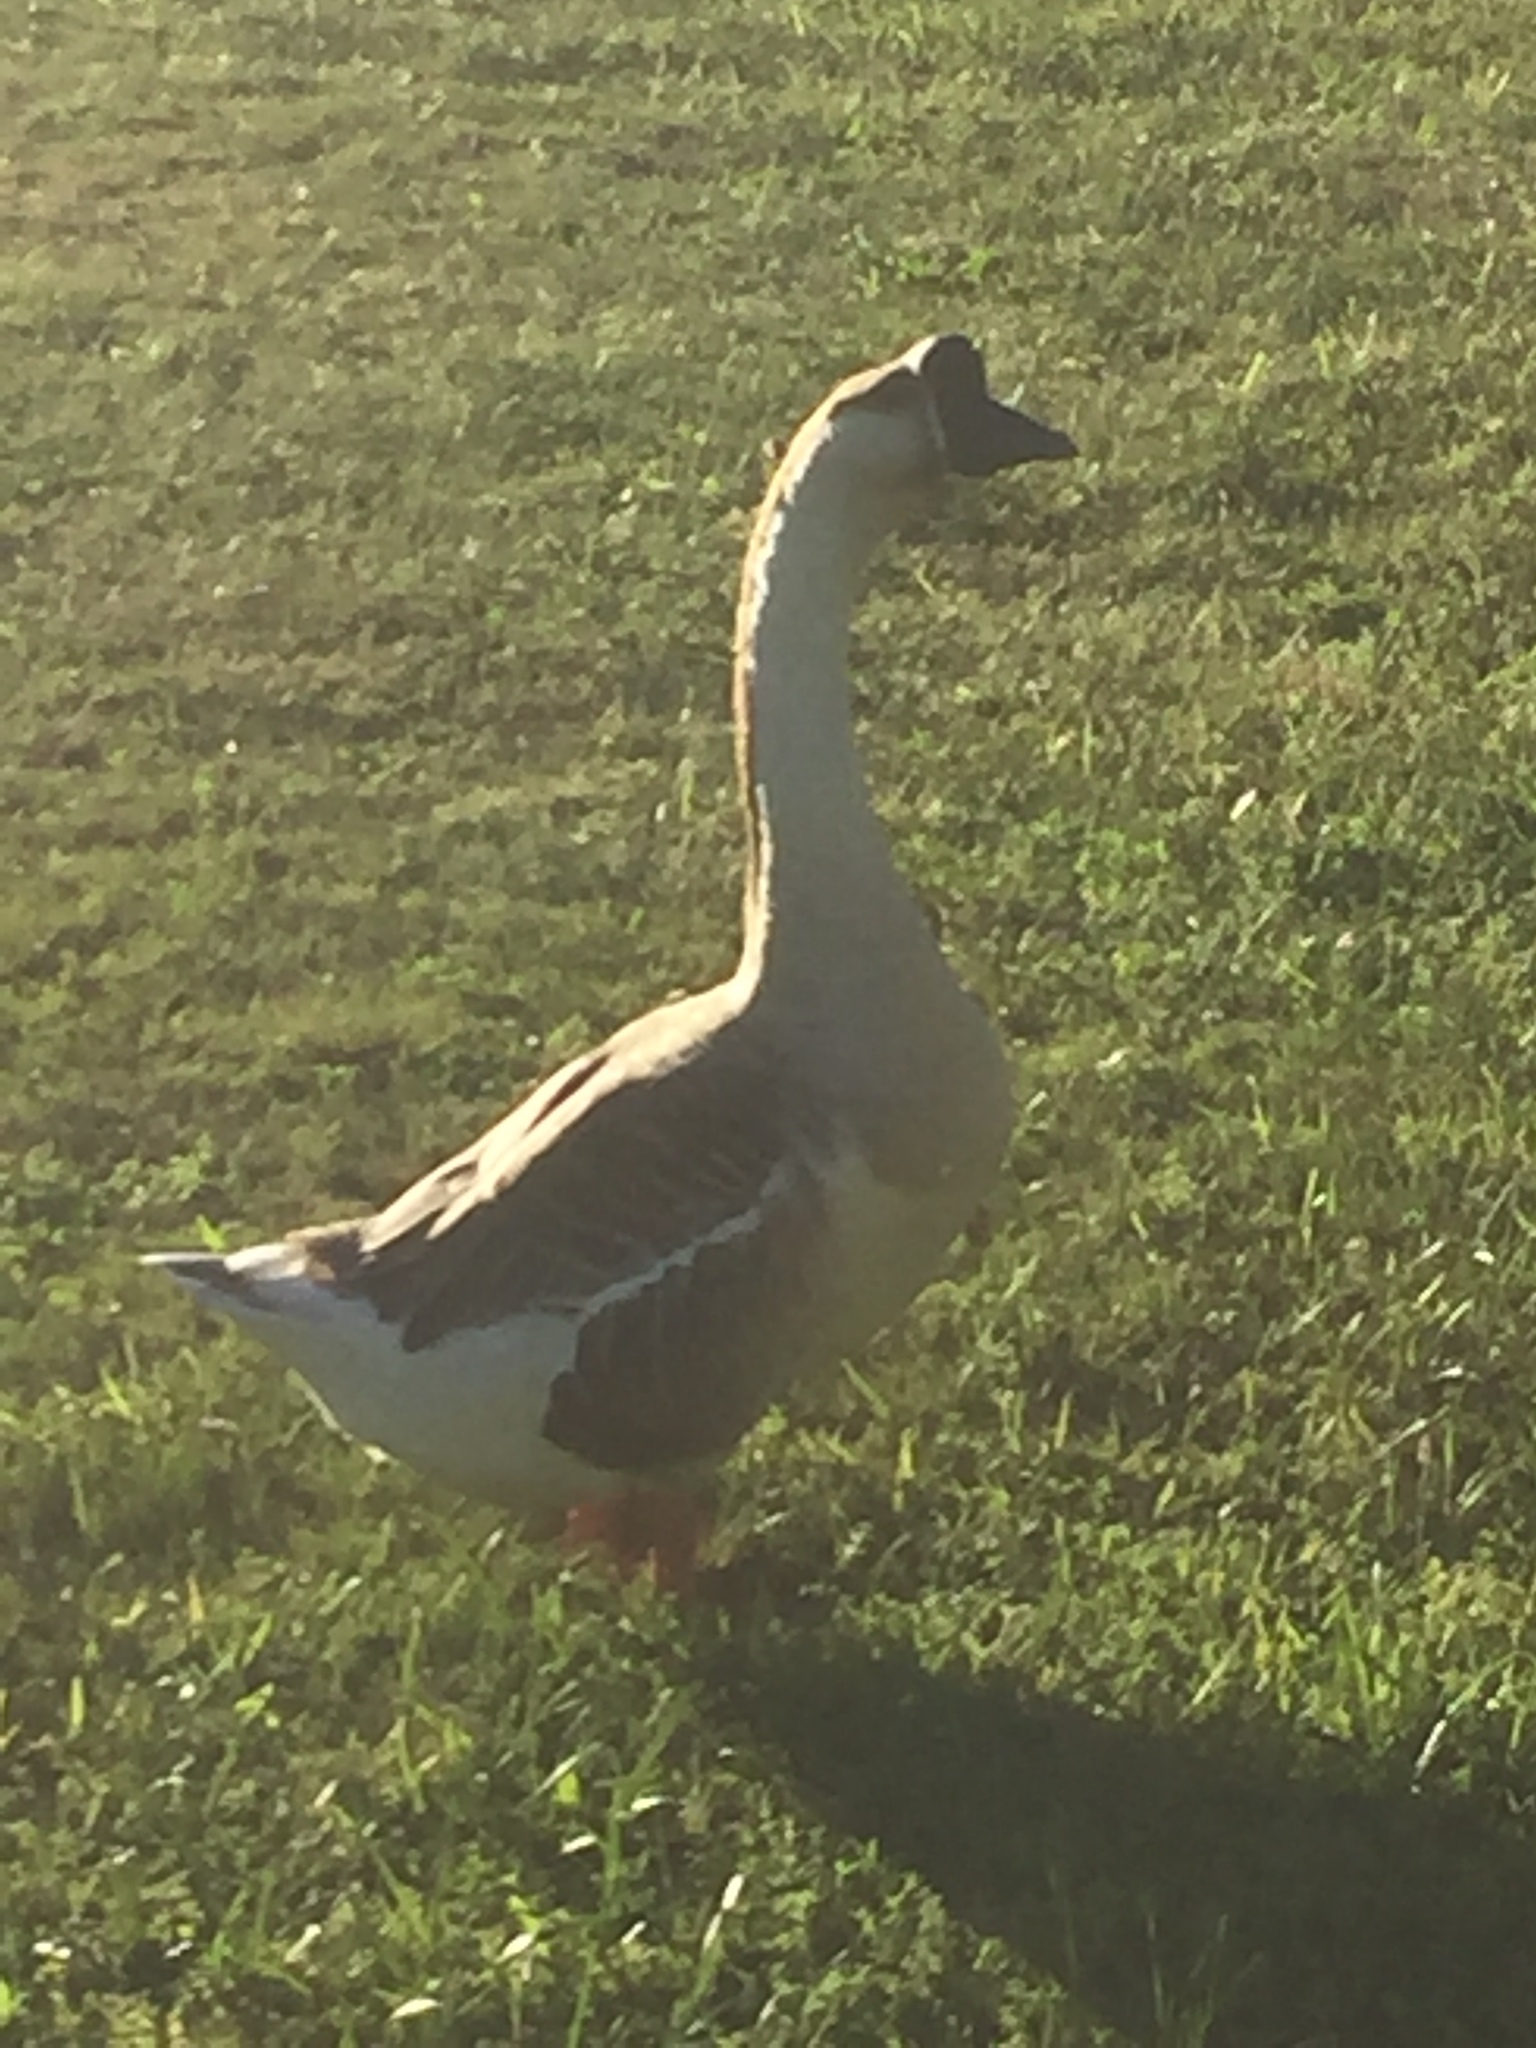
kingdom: Animalia
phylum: Chordata
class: Aves
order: Anseriformes
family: Anatidae
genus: Anser
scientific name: Anser cygnoides
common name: Swan goose
